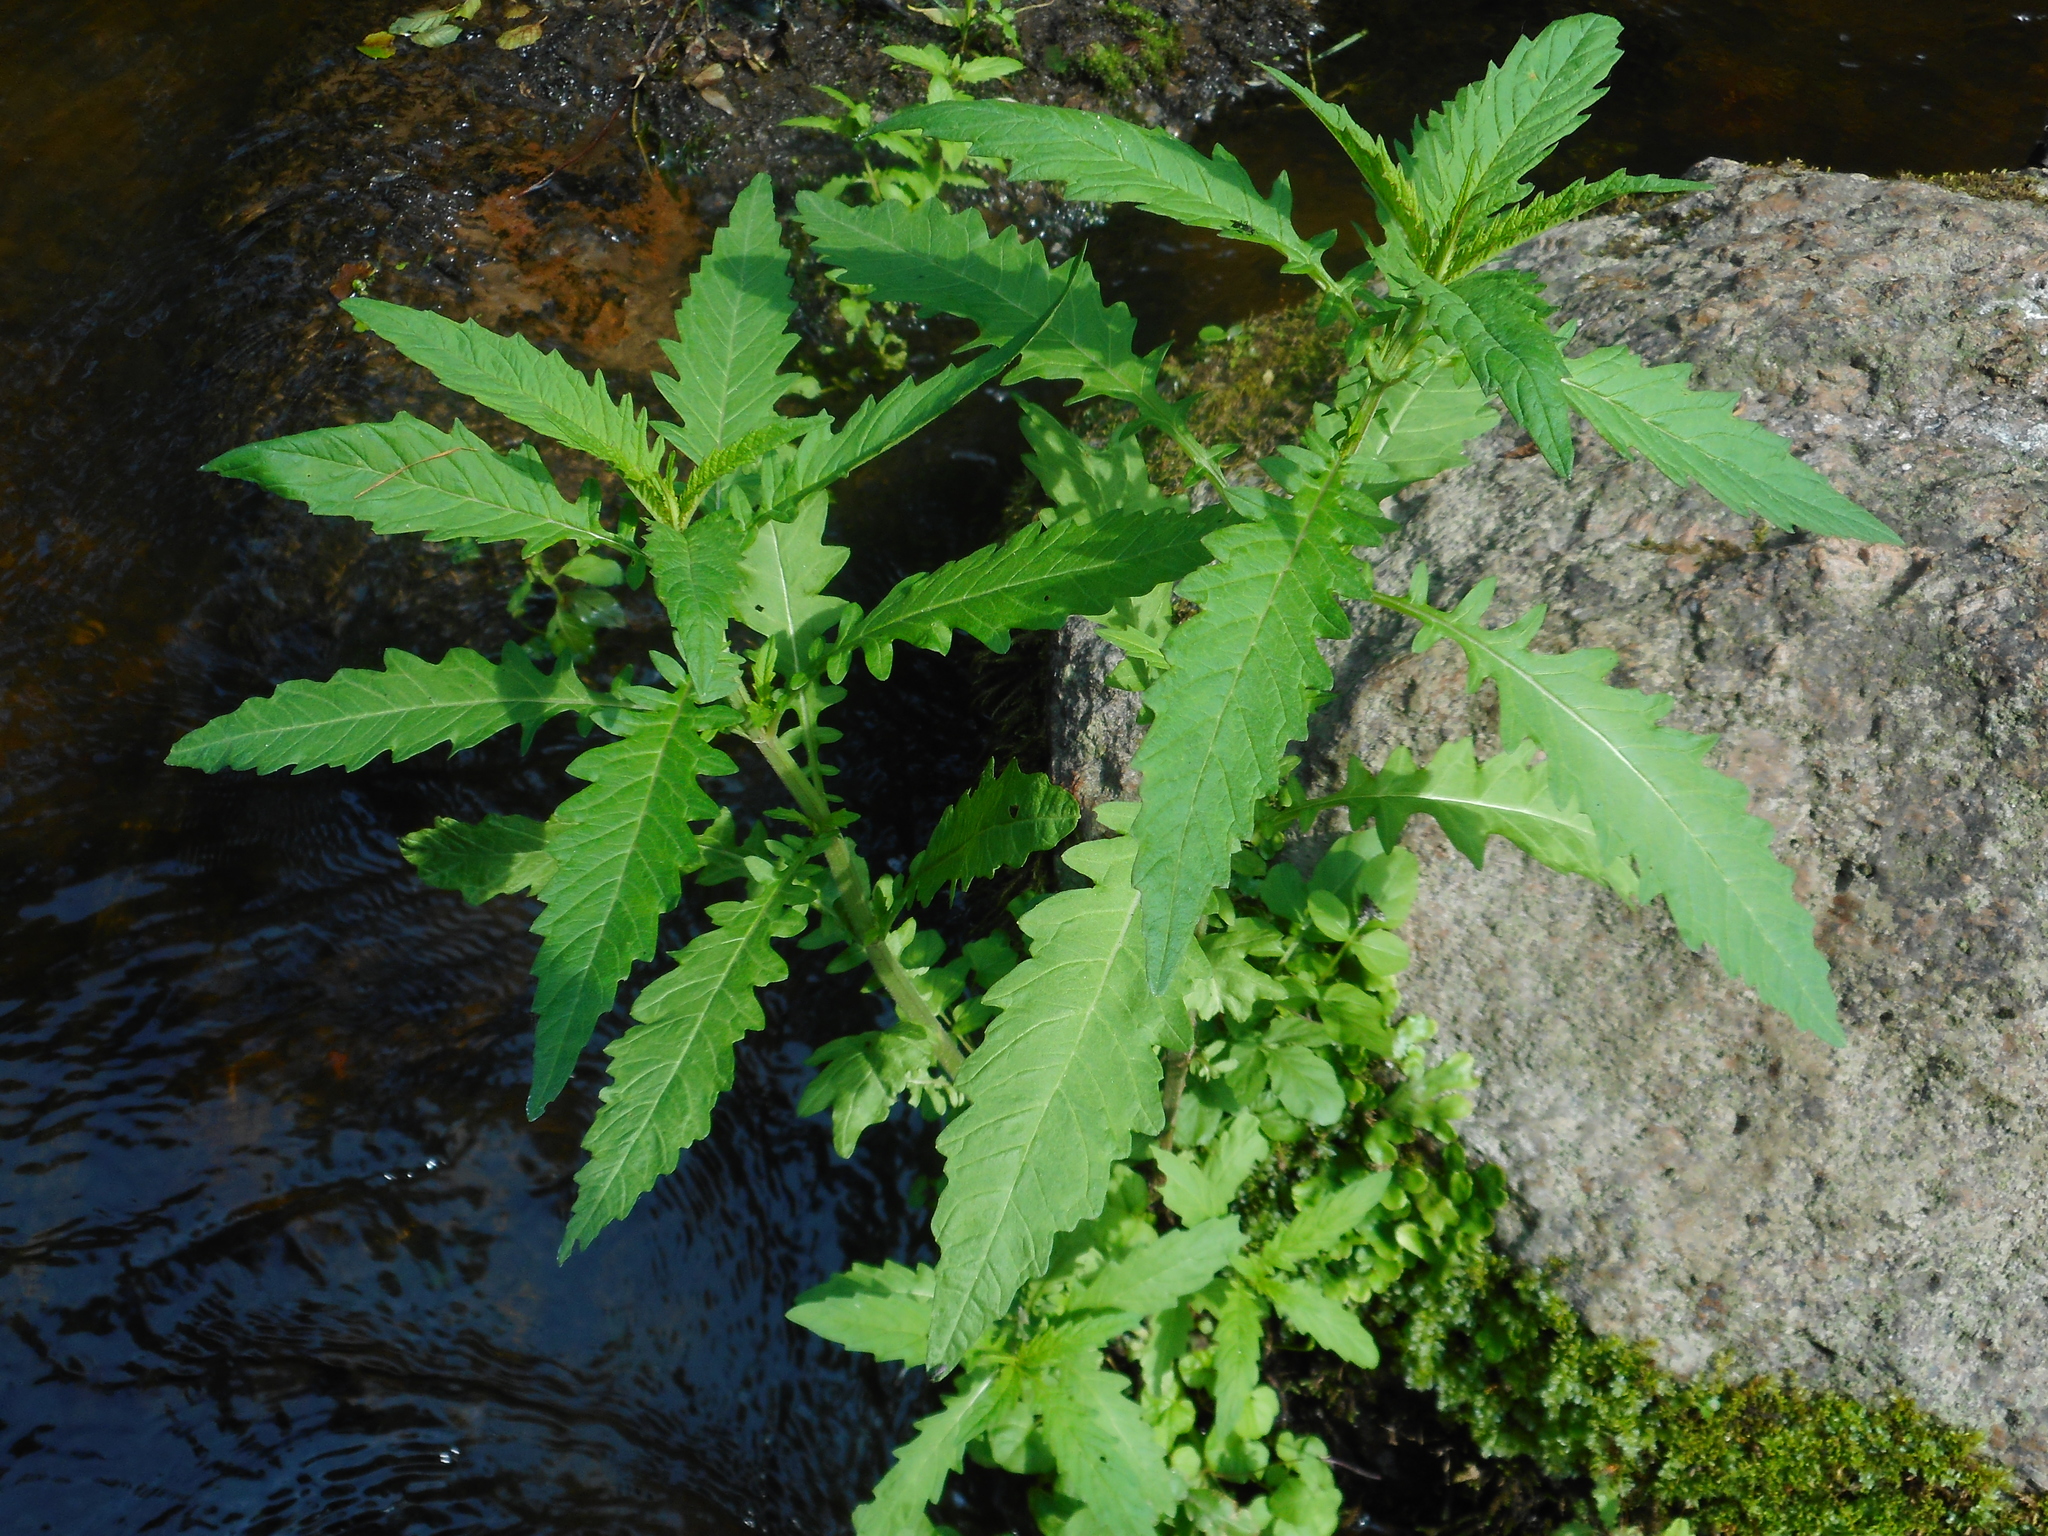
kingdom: Plantae
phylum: Tracheophyta
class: Magnoliopsida
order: Lamiales
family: Lamiaceae
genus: Lycopus
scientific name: Lycopus europaeus
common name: European bugleweed
